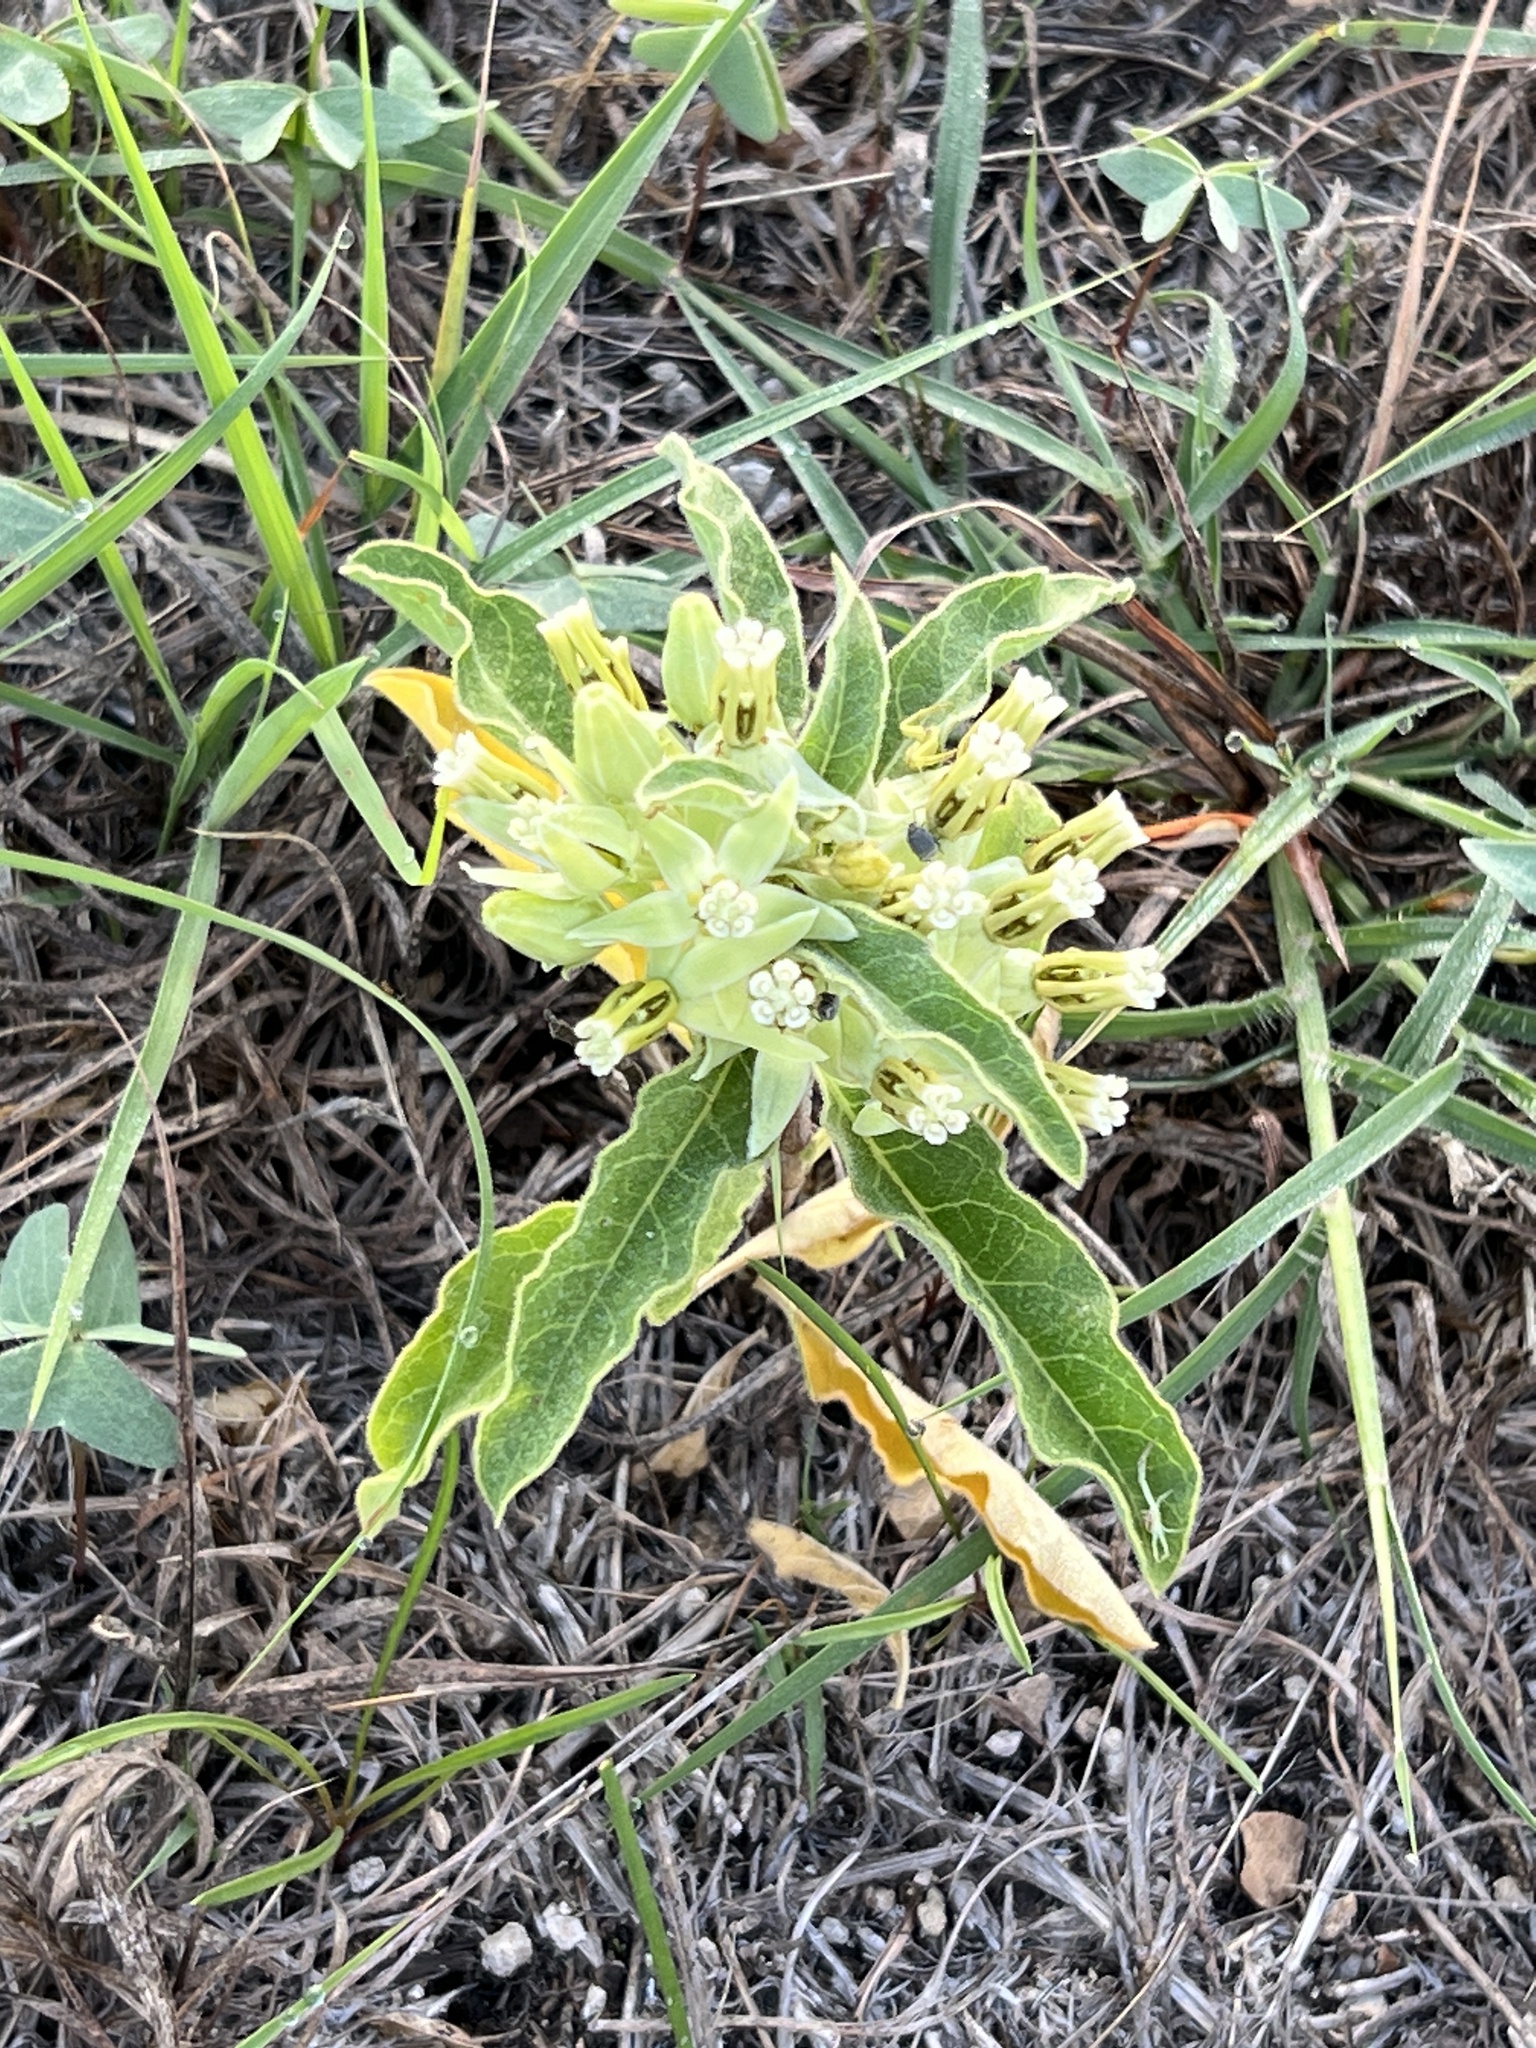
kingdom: Plantae
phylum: Tracheophyta
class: Magnoliopsida
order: Gentianales
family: Apocynaceae
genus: Asclepias
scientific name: Asclepias oenotheroides
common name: Zizotes milkweed
